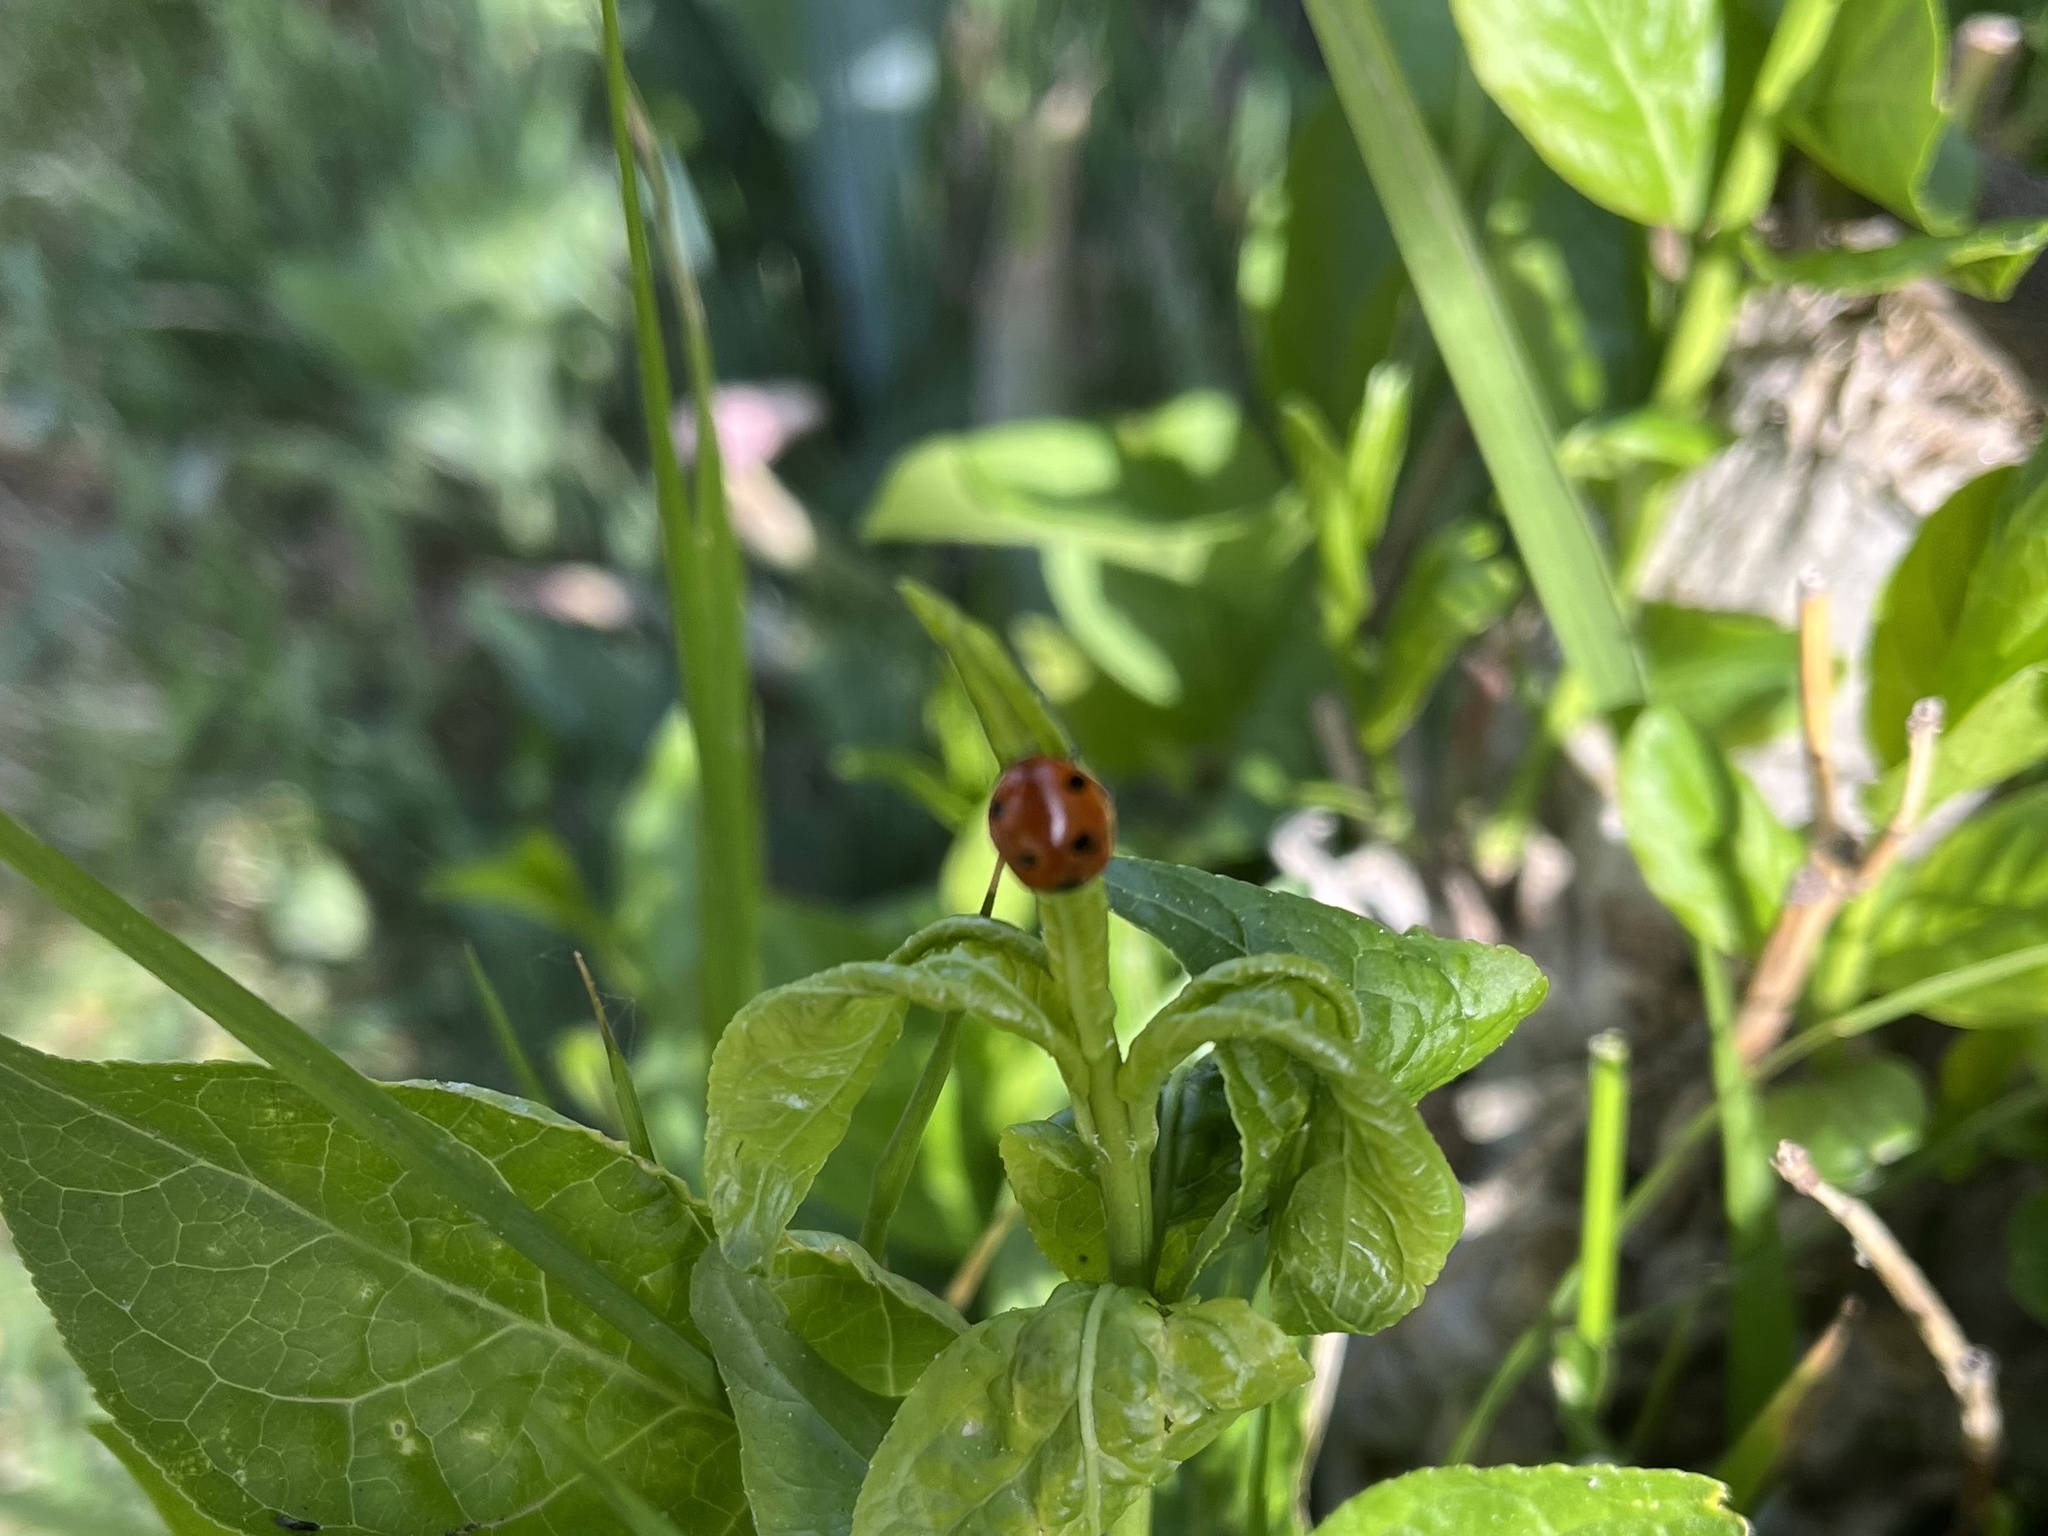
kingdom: Animalia
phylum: Arthropoda
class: Insecta
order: Coleoptera
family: Coccinellidae
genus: Coccinella
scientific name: Coccinella septempunctata
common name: Sevenspotted lady beetle
